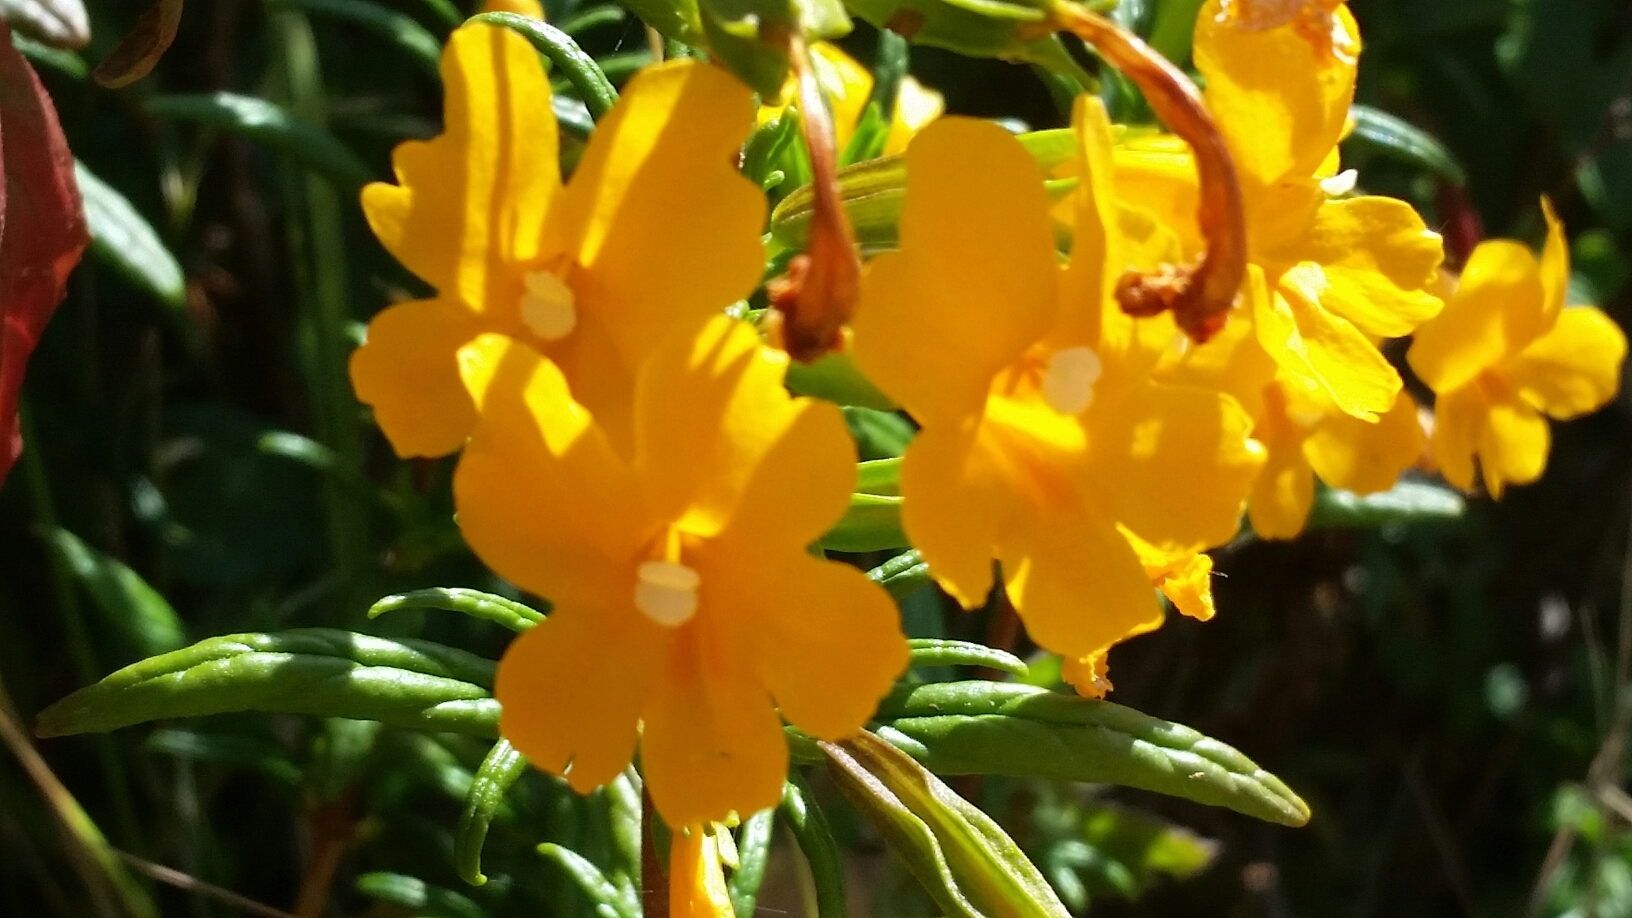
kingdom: Plantae
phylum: Tracheophyta
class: Magnoliopsida
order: Lamiales
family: Phrymaceae
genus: Diplacus
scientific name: Diplacus aurantiacus
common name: Bush monkey-flower
